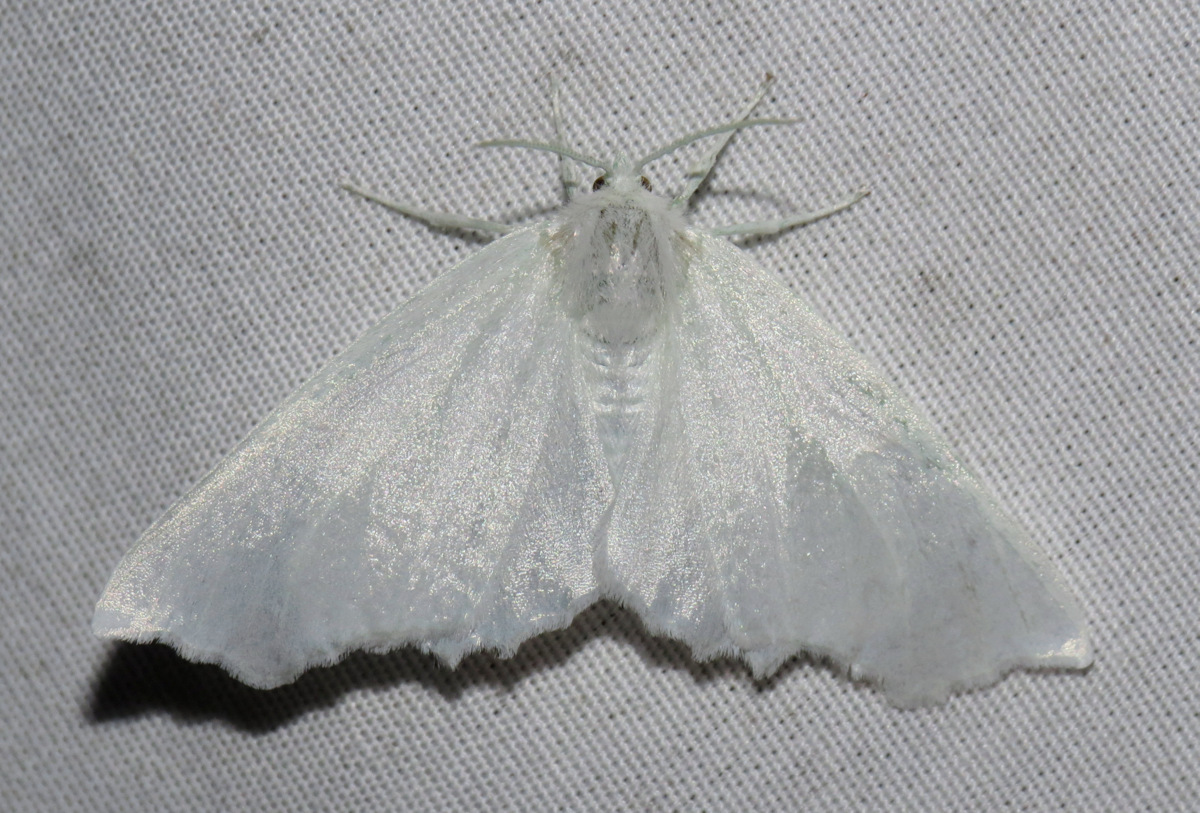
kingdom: Animalia
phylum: Arthropoda
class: Insecta
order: Lepidoptera
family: Geometridae
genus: Ennomos
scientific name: Ennomos subsignaria
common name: Elm spanworm
